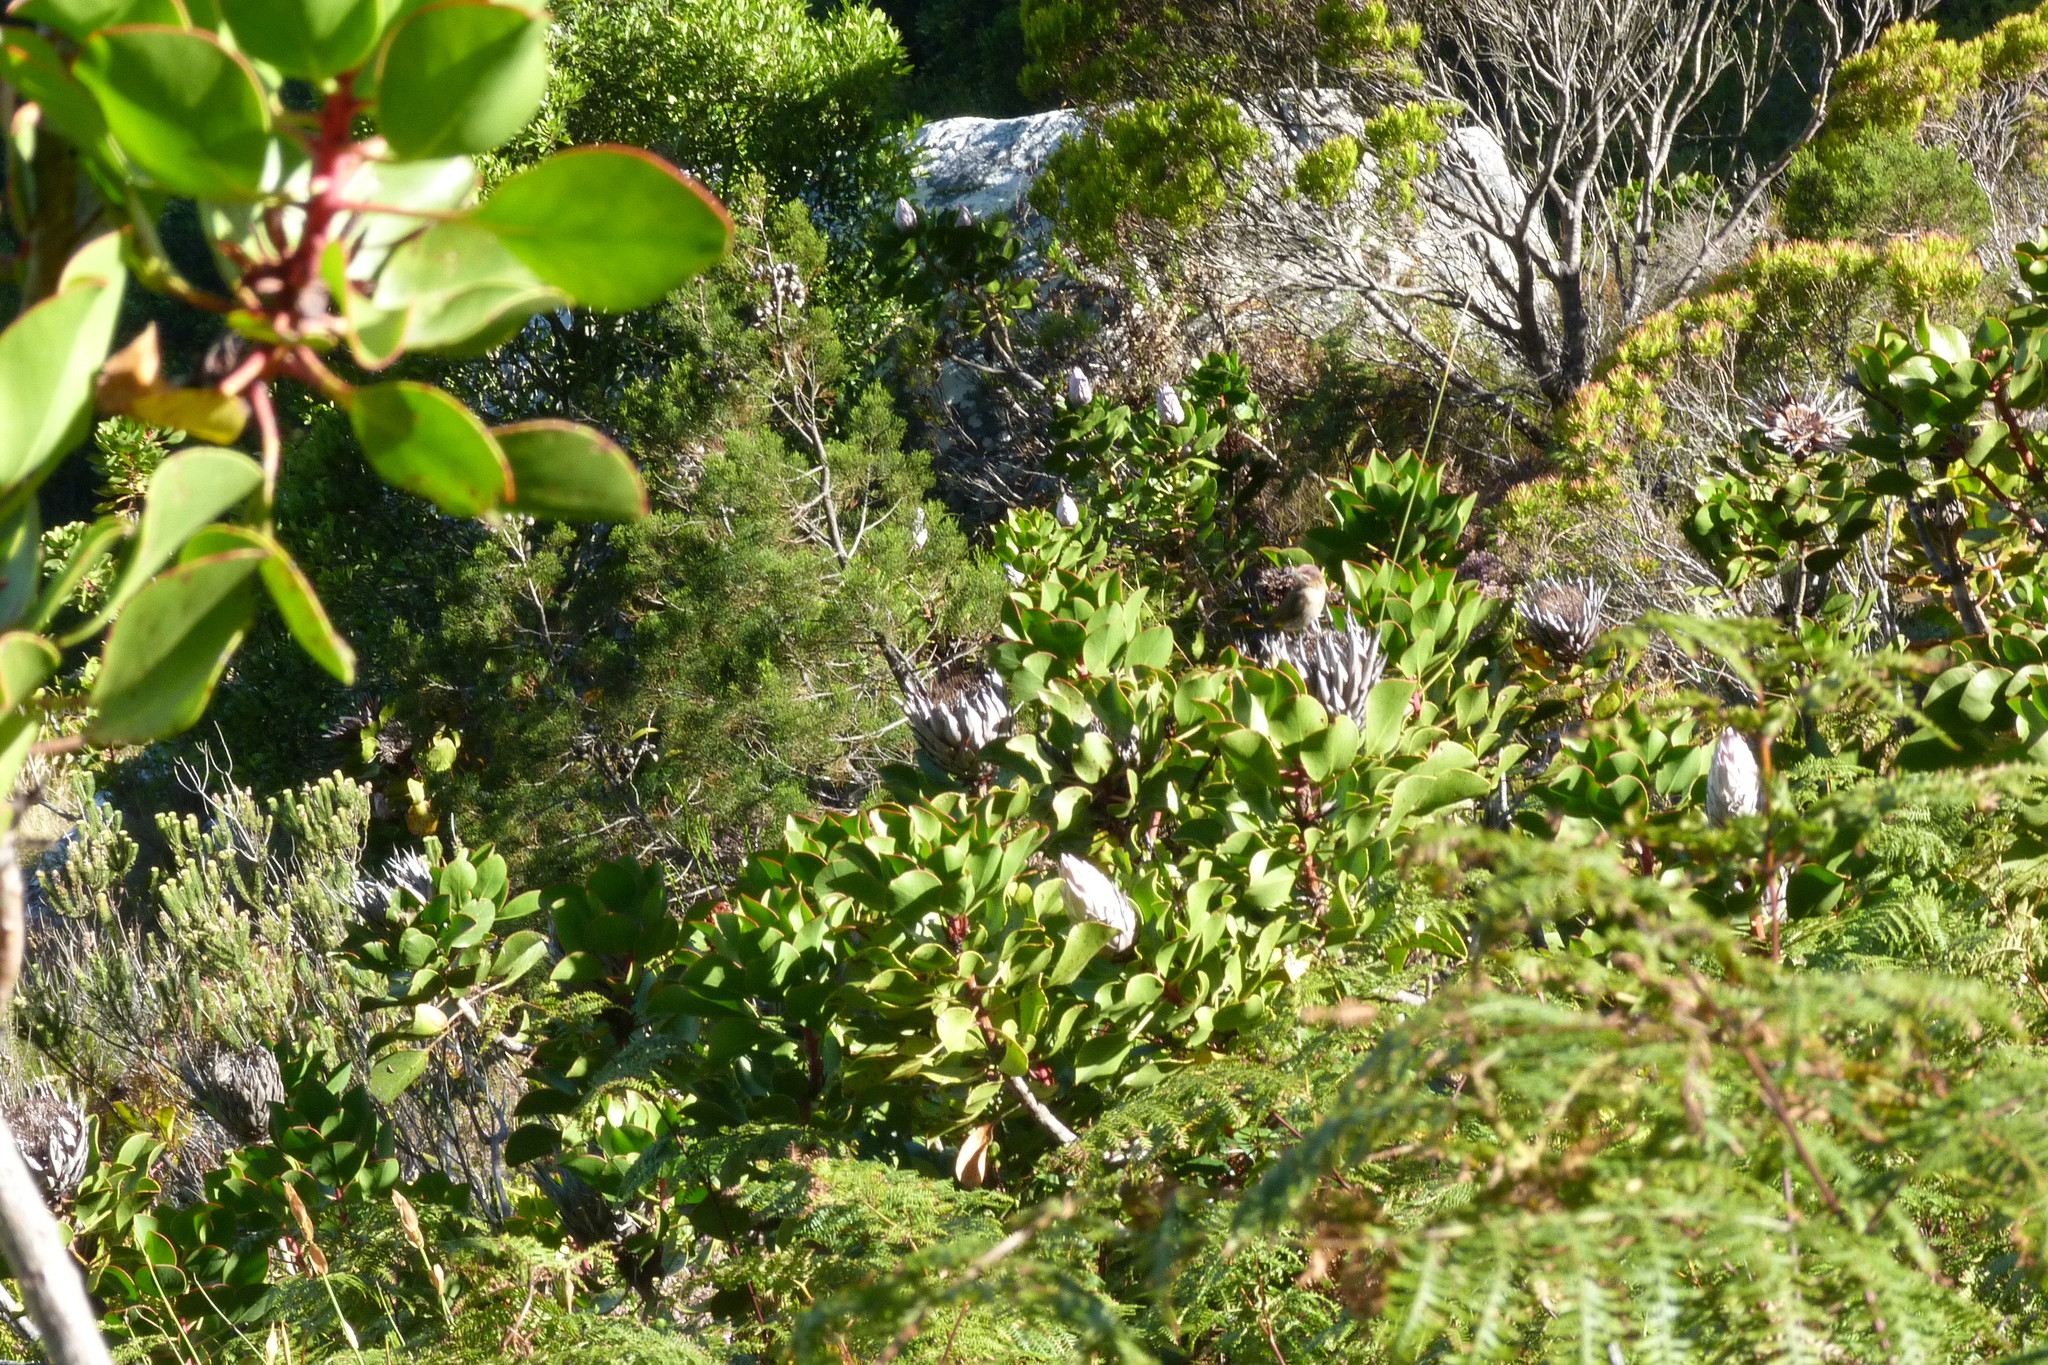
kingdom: Animalia
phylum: Chordata
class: Aves
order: Passeriformes
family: Promeropidae
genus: Promerops
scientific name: Promerops cafer
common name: Cape sugarbird
